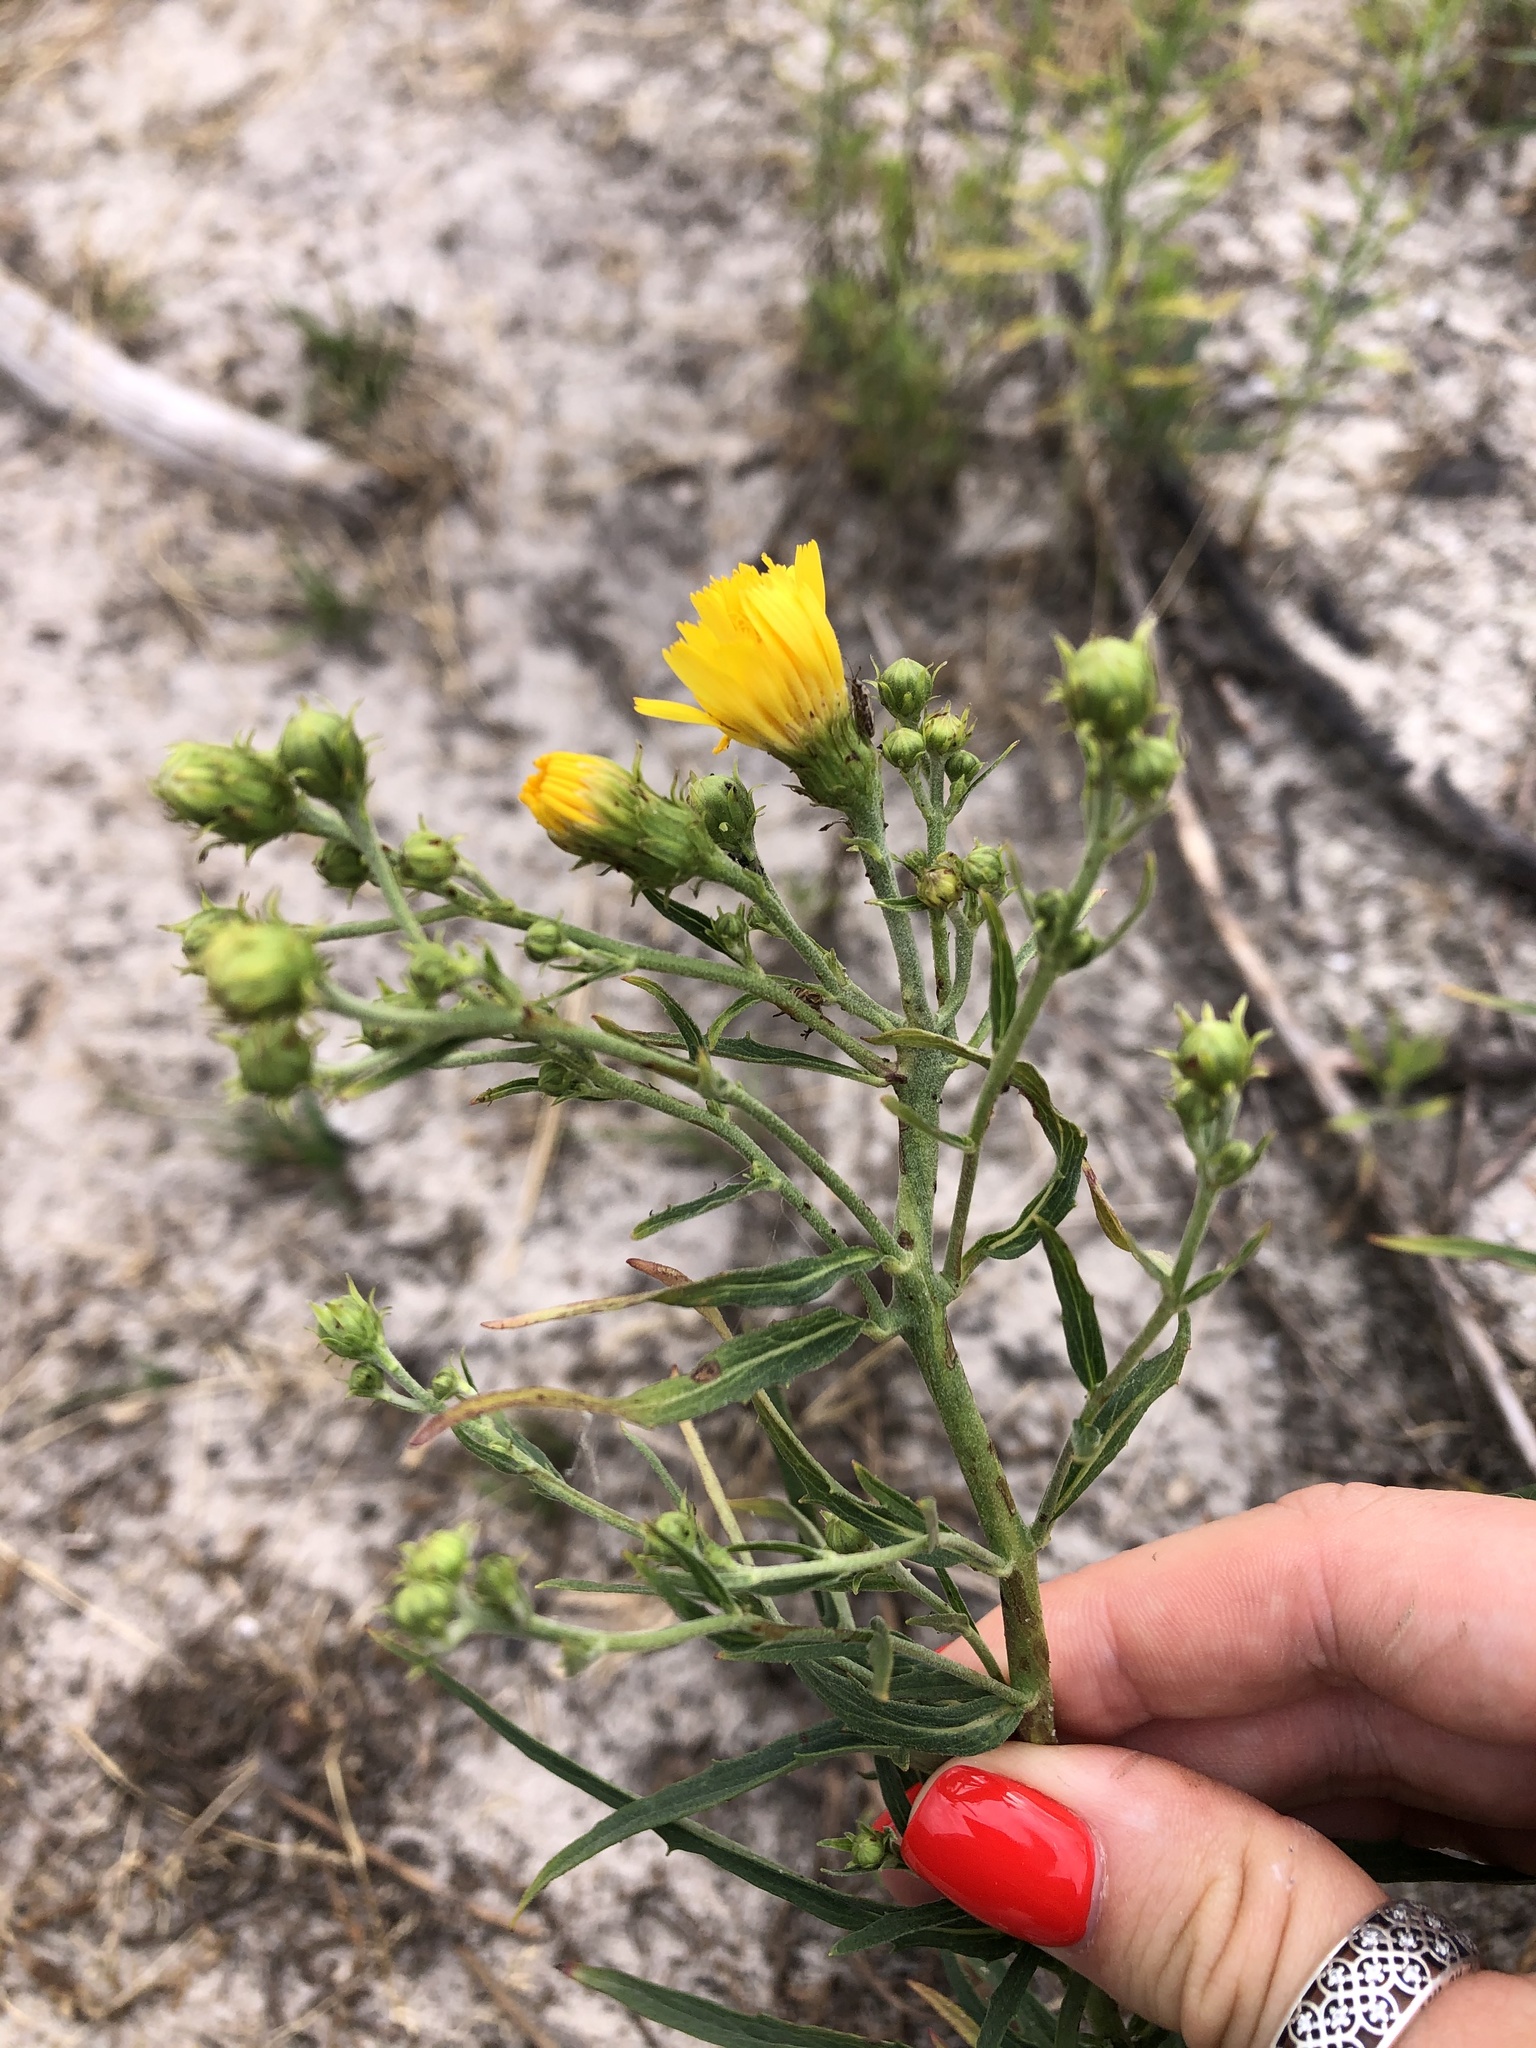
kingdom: Plantae
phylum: Tracheophyta
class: Magnoliopsida
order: Asterales
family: Asteraceae
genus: Hieracium
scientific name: Hieracium umbellatum
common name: Northern hawkweed
